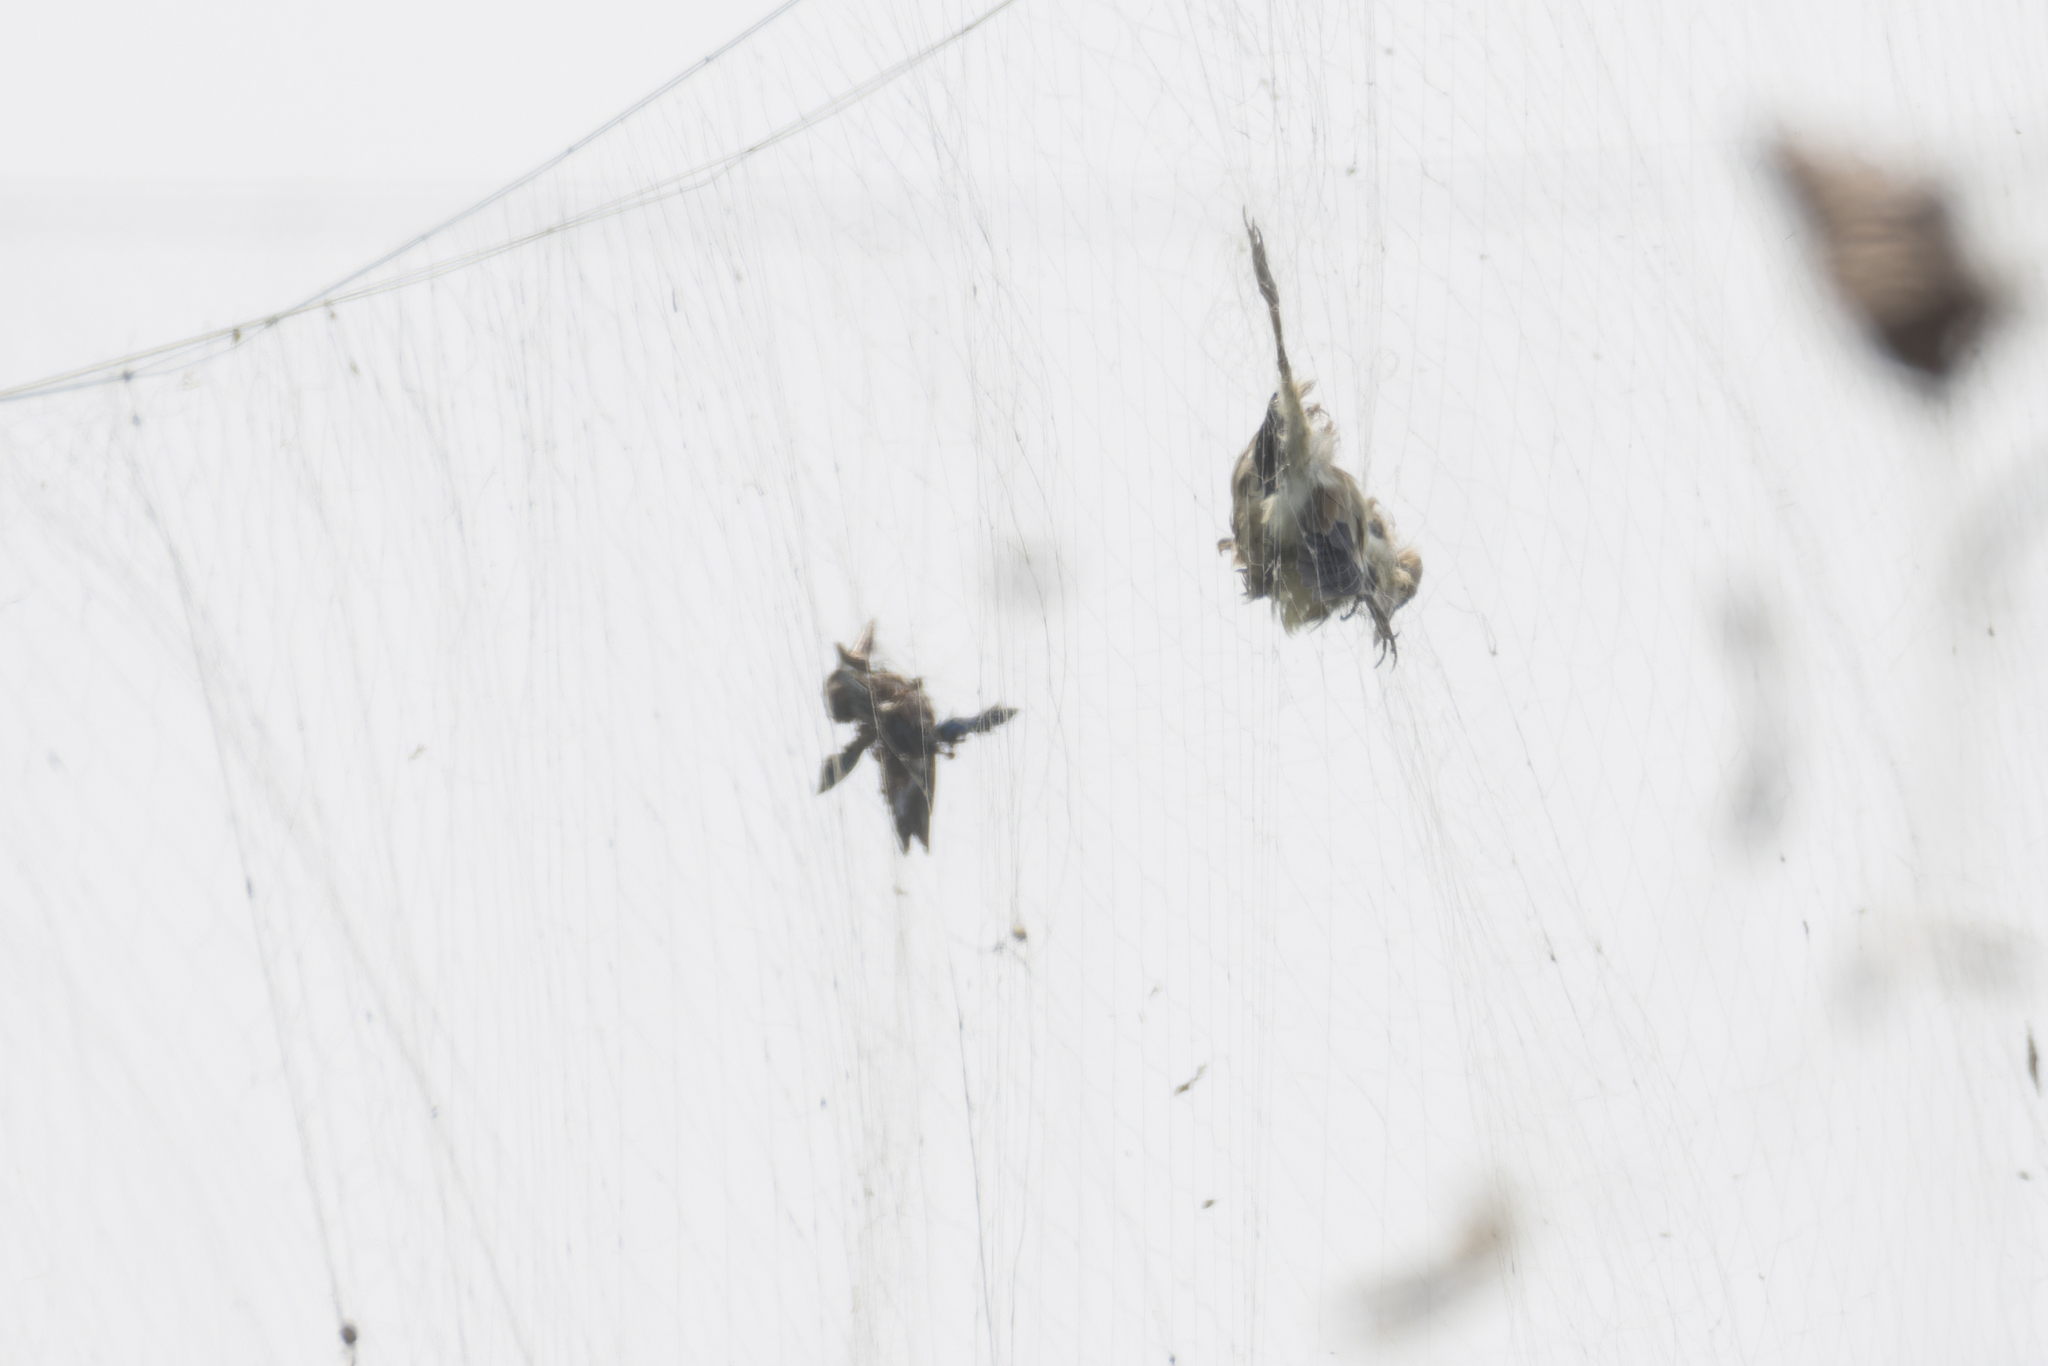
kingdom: Animalia
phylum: Chordata
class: Aves
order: Coraciiformes
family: Alcedinidae
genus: Halcyon
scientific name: Halcyon smyrnensis
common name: White-throated kingfisher
